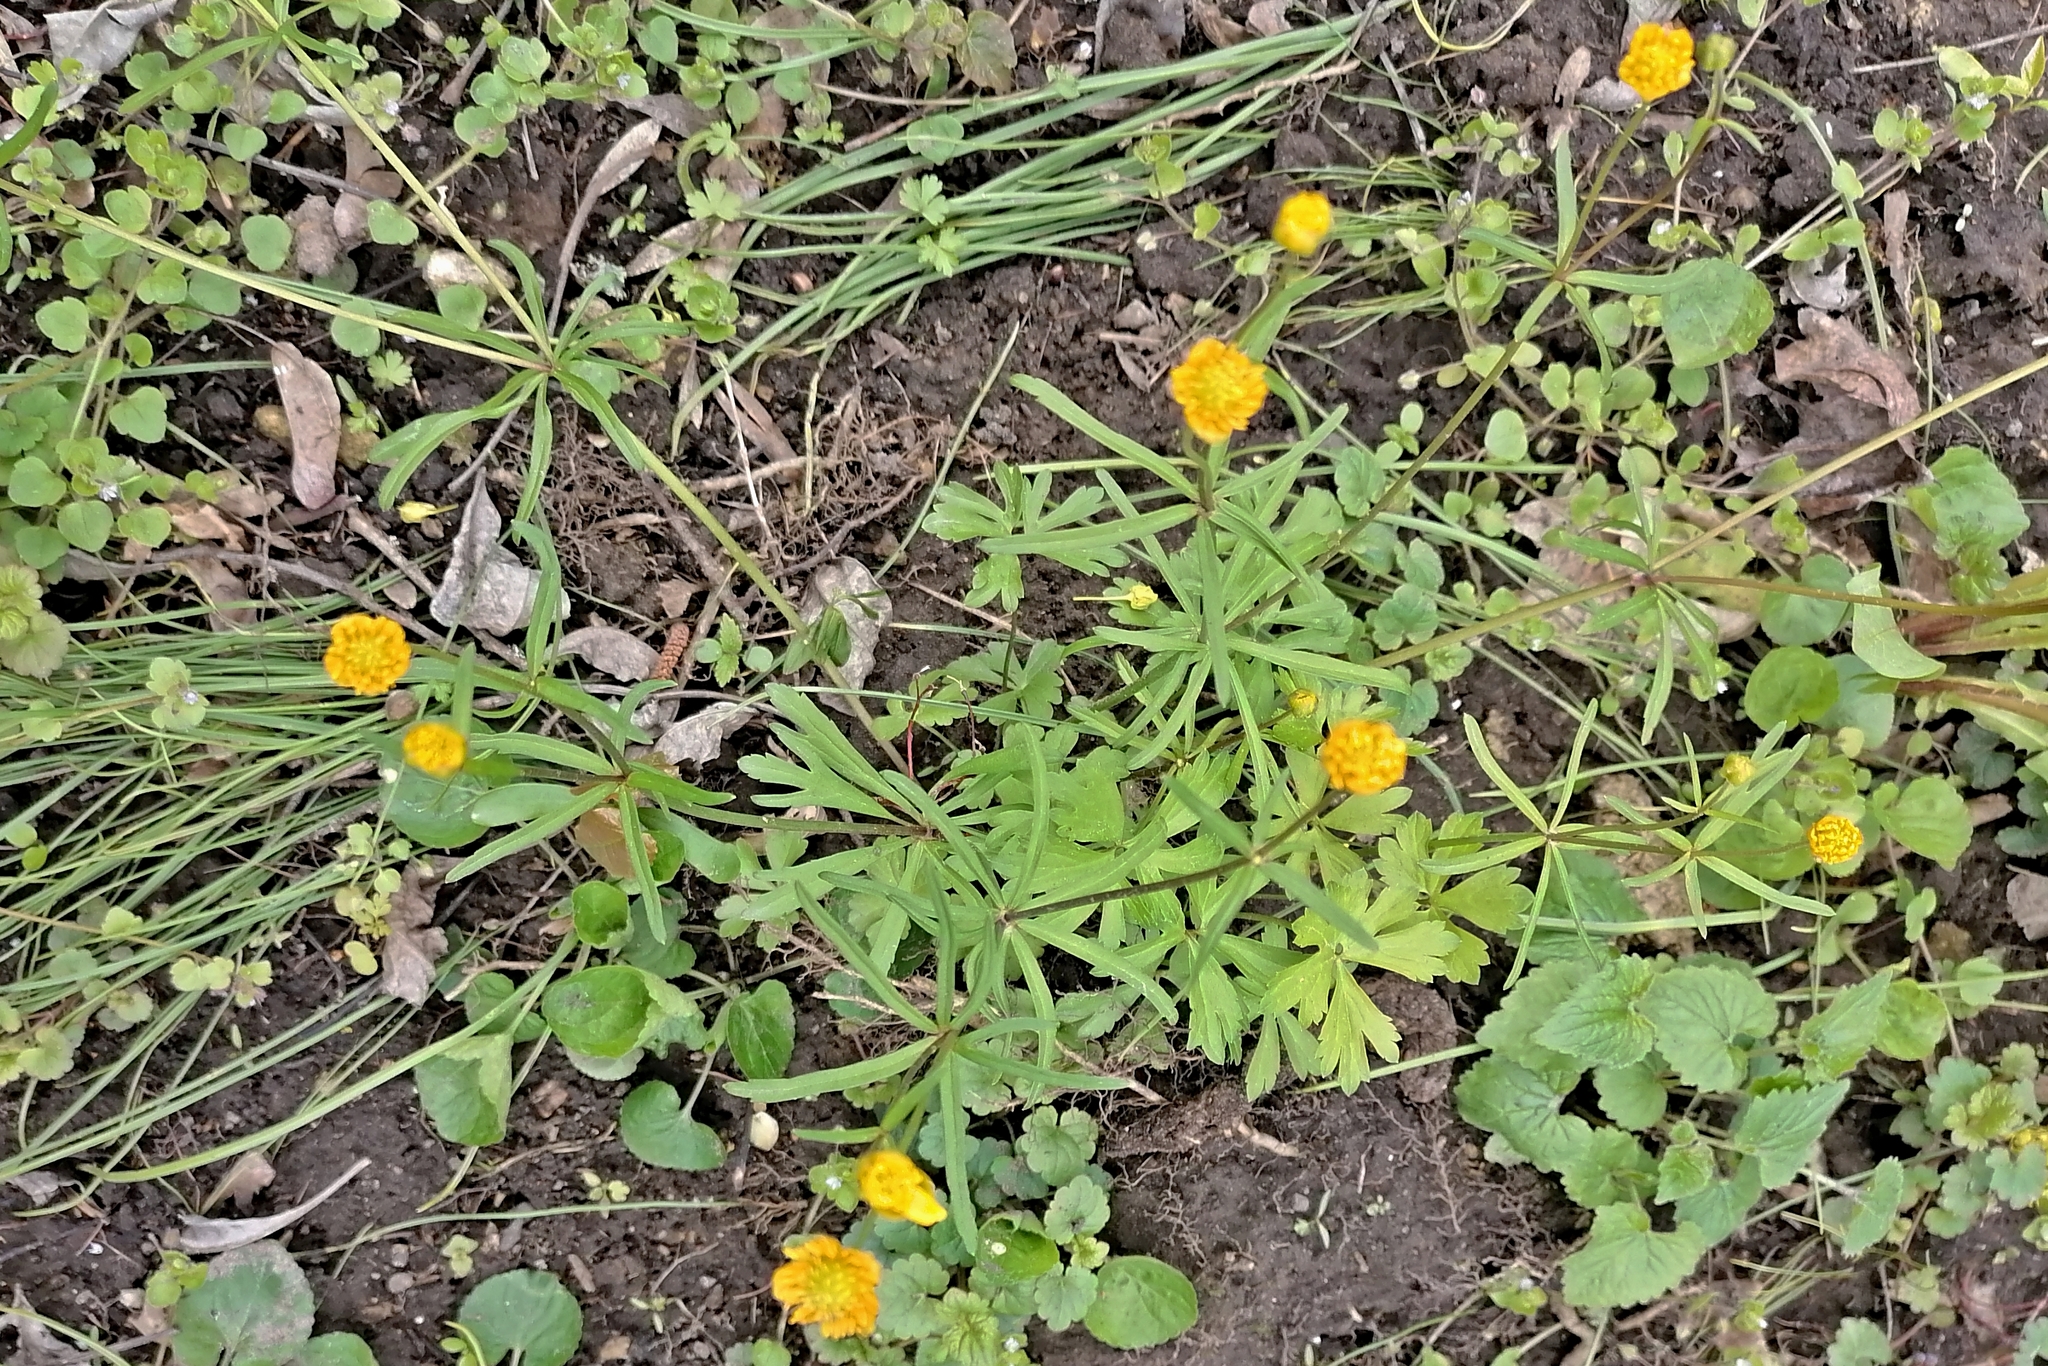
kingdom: Plantae
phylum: Tracheophyta
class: Magnoliopsida
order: Ranunculales
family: Ranunculaceae
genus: Ranunculus
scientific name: Ranunculus auricomus
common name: Goldilocks buttercup
